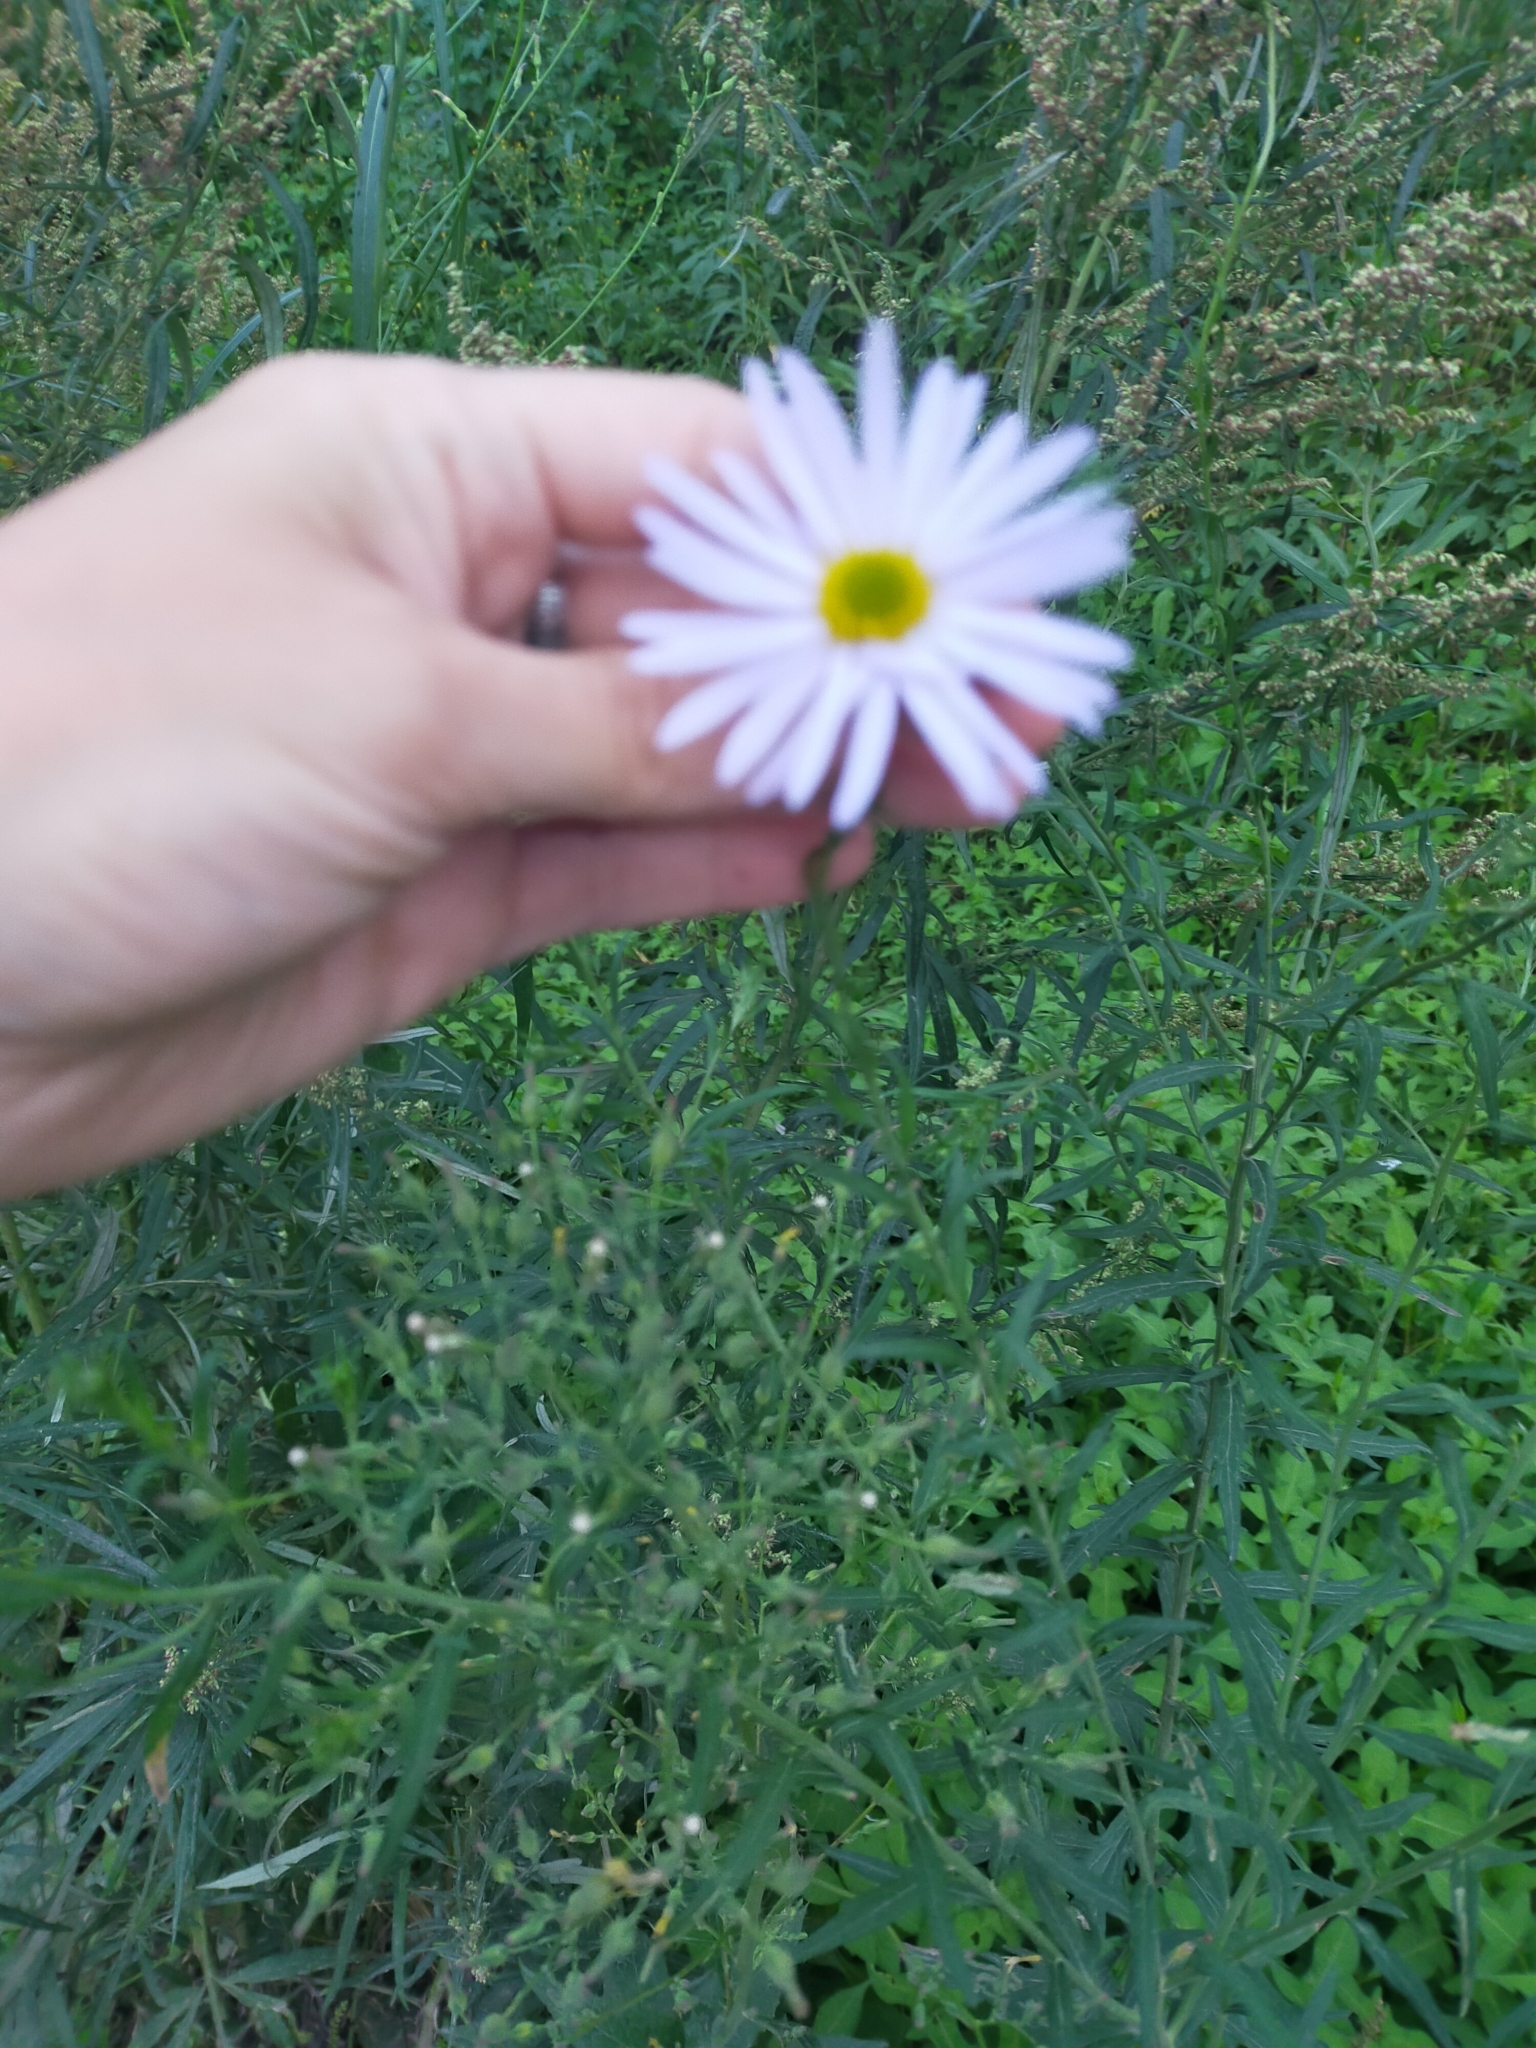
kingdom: Plantae
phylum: Tracheophyta
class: Magnoliopsida
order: Asterales
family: Asteraceae
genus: Kalimeris
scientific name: Kalimeris incisa
